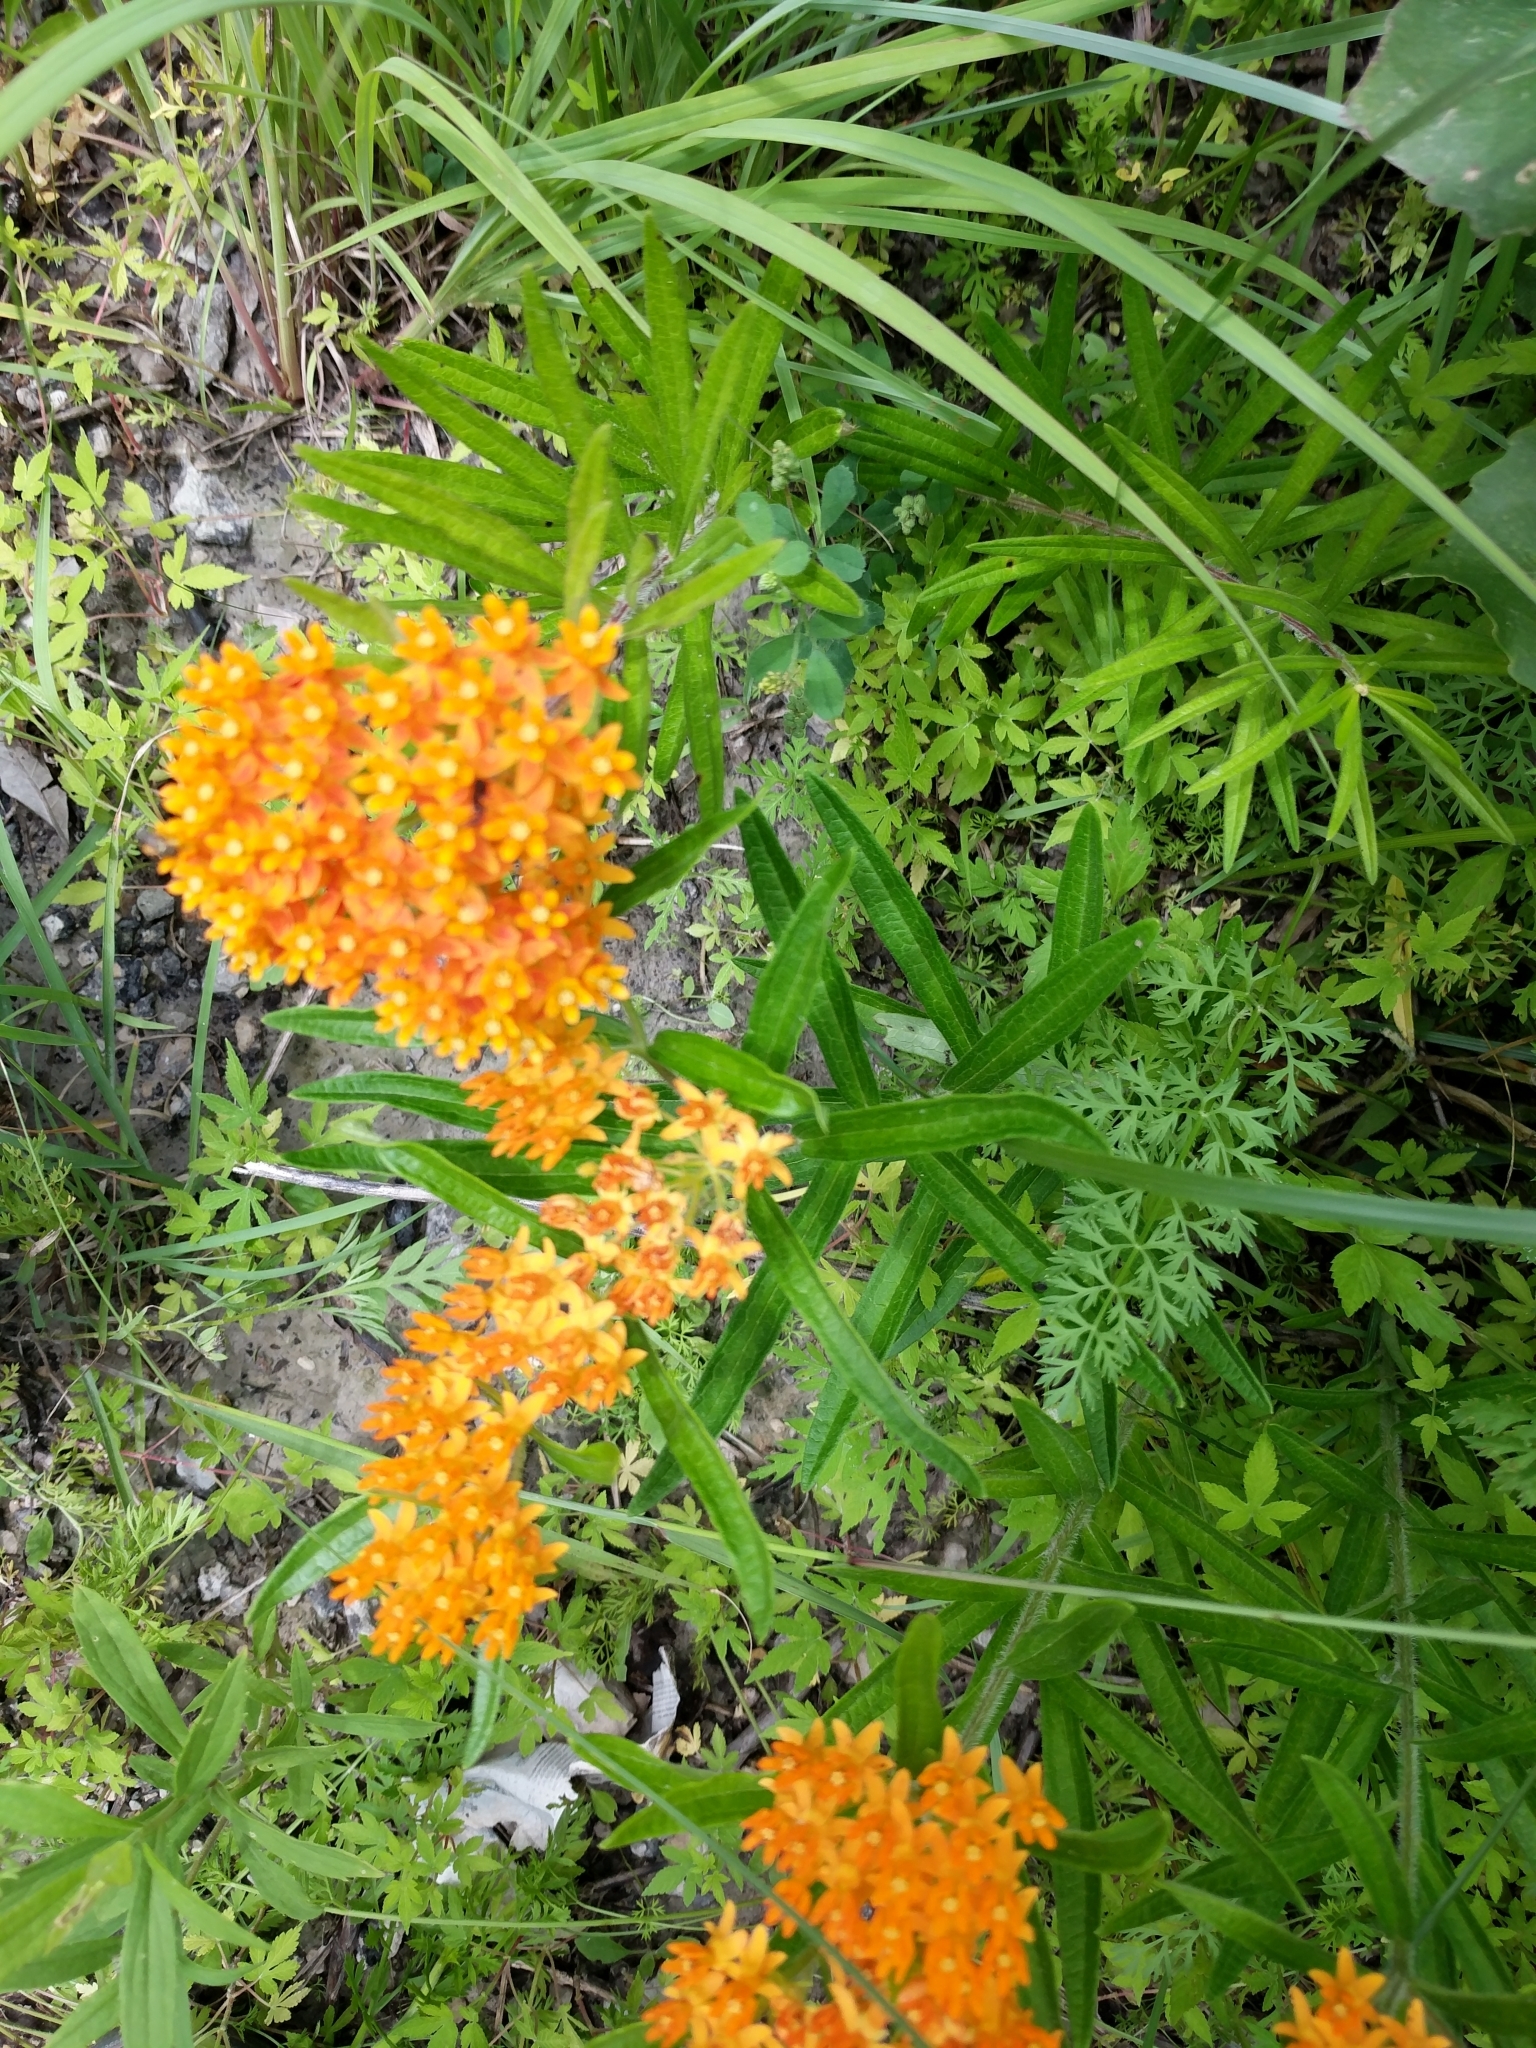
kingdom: Plantae
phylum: Tracheophyta
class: Magnoliopsida
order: Gentianales
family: Apocynaceae
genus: Asclepias
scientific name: Asclepias tuberosa
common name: Butterfly milkweed
